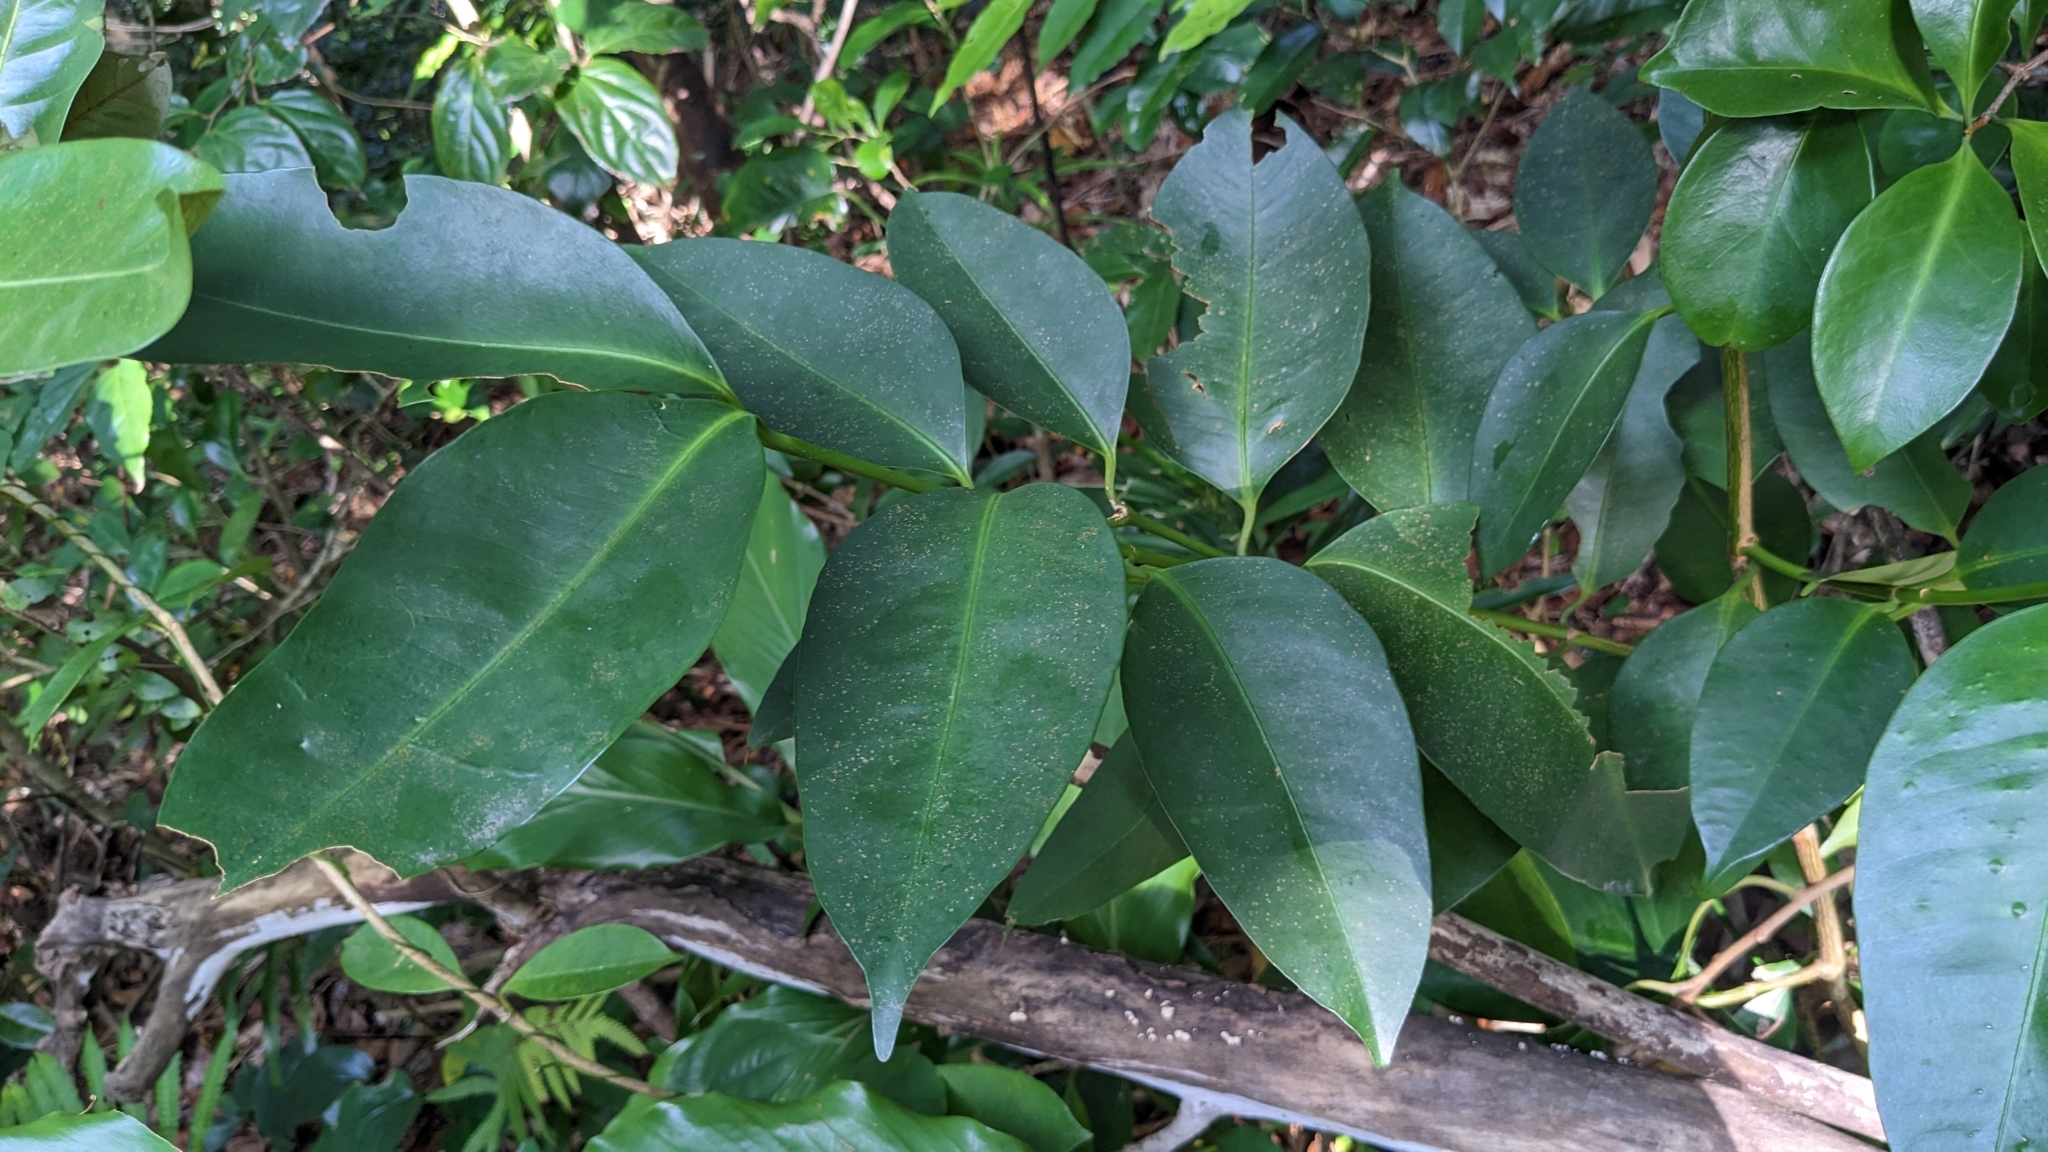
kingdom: Plantae
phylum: Tracheophyta
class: Magnoliopsida
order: Malpighiales
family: Clusiaceae
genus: Garcinia
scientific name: Garcinia linii
